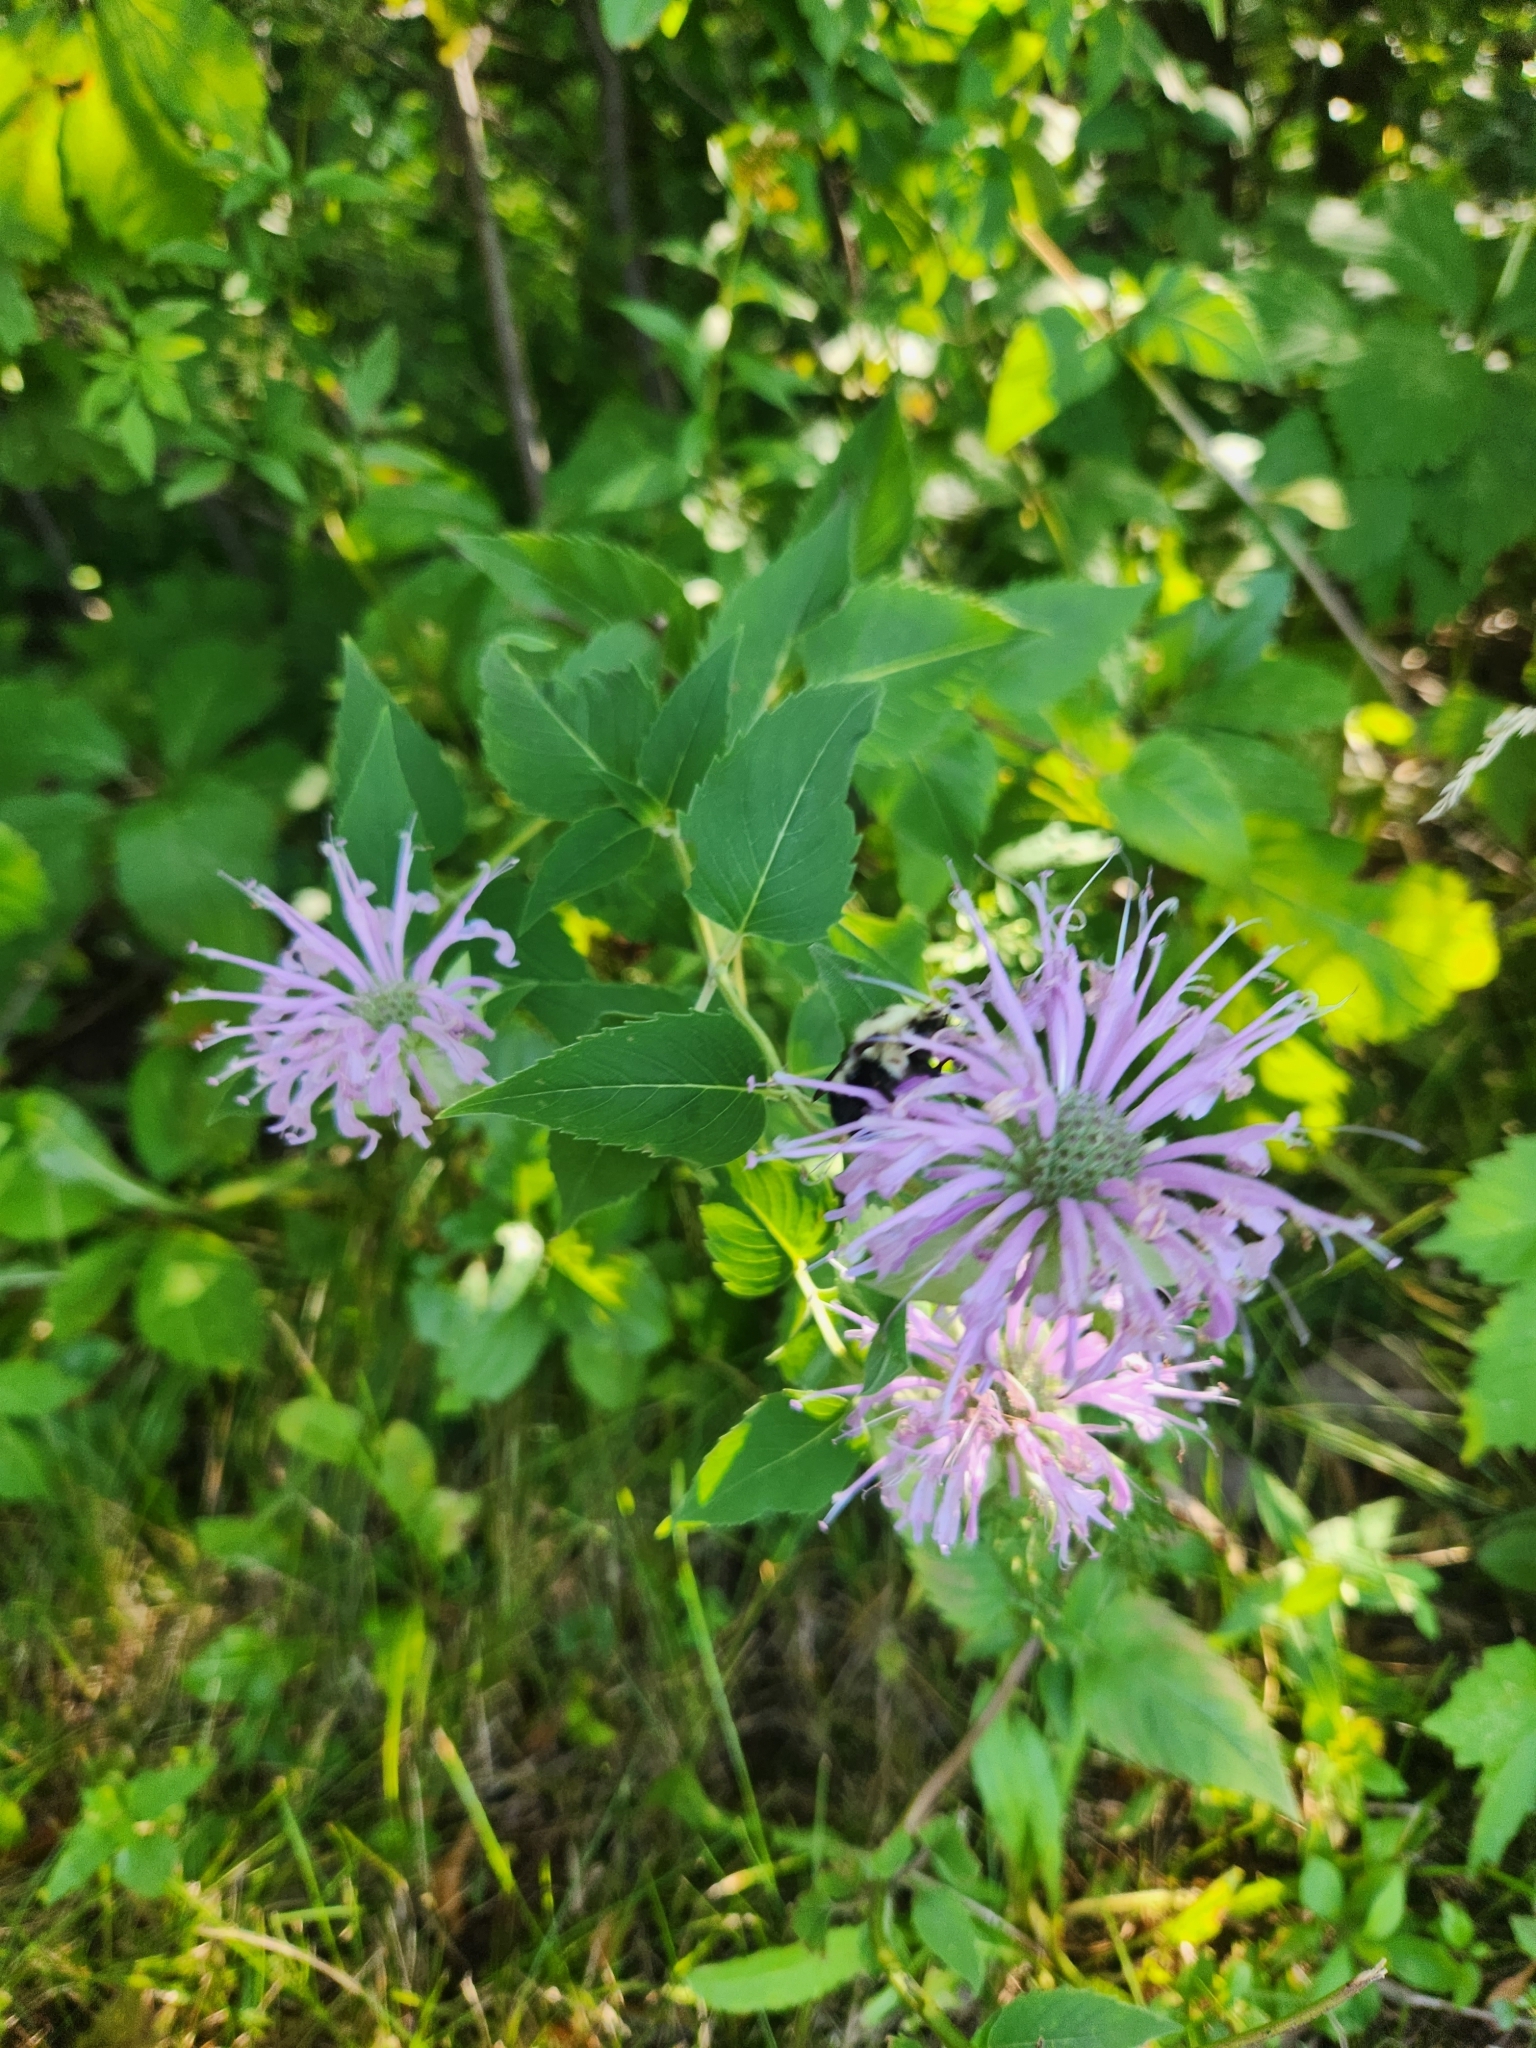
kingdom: Plantae
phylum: Tracheophyta
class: Magnoliopsida
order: Lamiales
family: Lamiaceae
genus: Monarda
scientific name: Monarda fistulosa
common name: Purple beebalm
